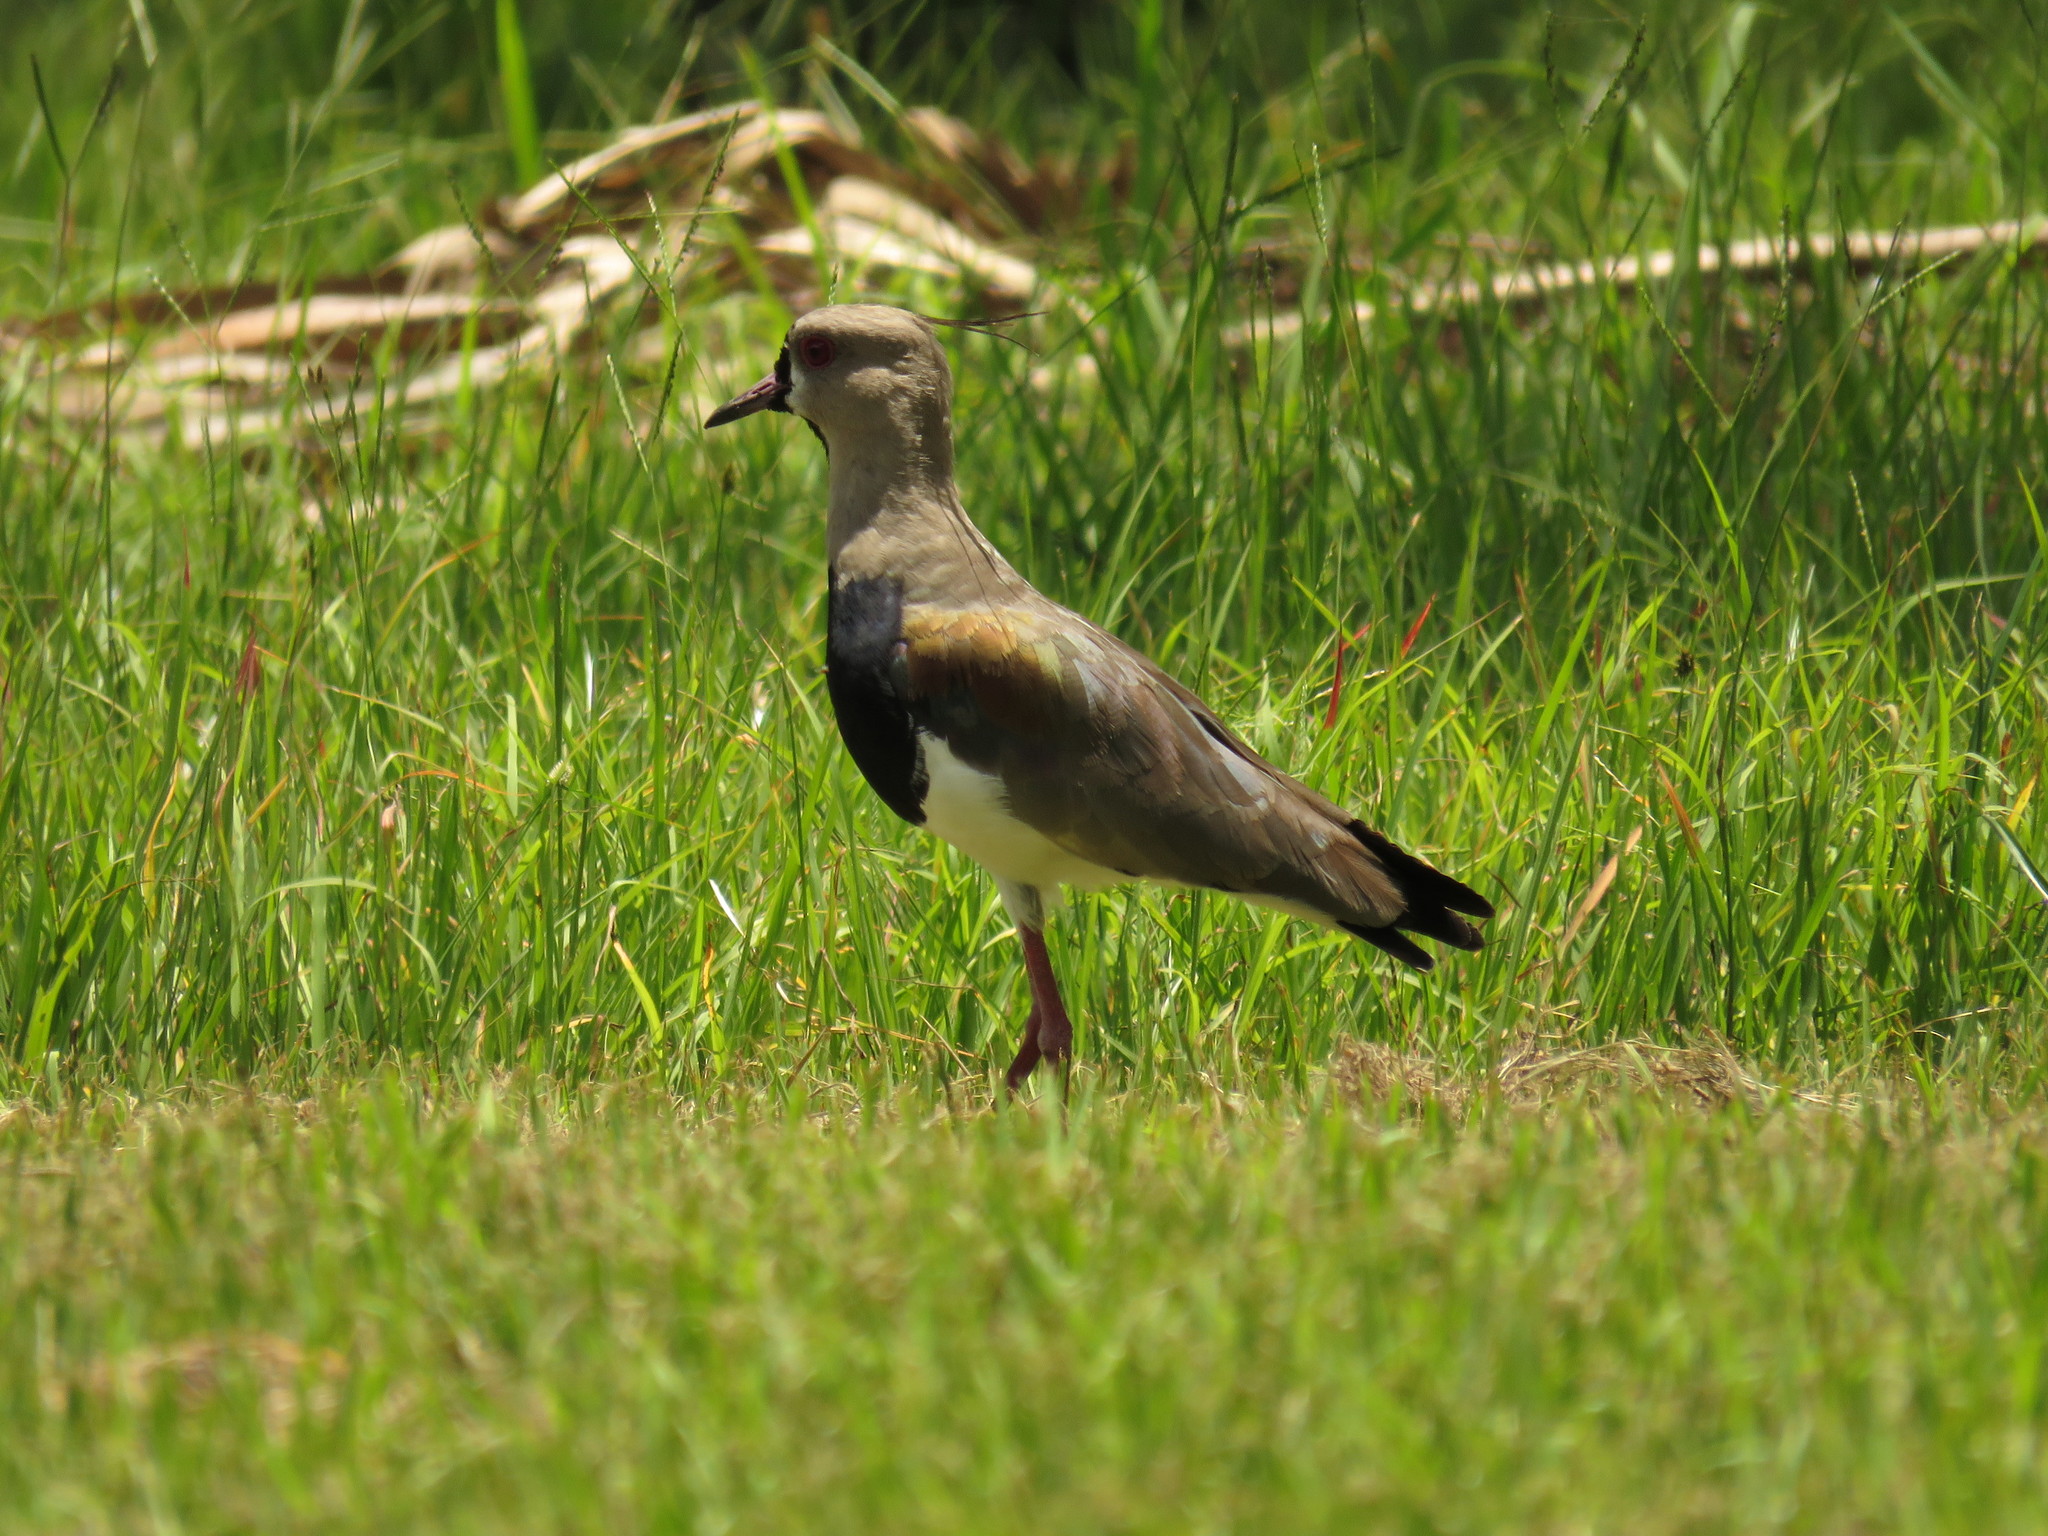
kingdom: Animalia
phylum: Chordata
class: Aves
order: Charadriiformes
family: Charadriidae
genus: Vanellus
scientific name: Vanellus chilensis
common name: Southern lapwing
